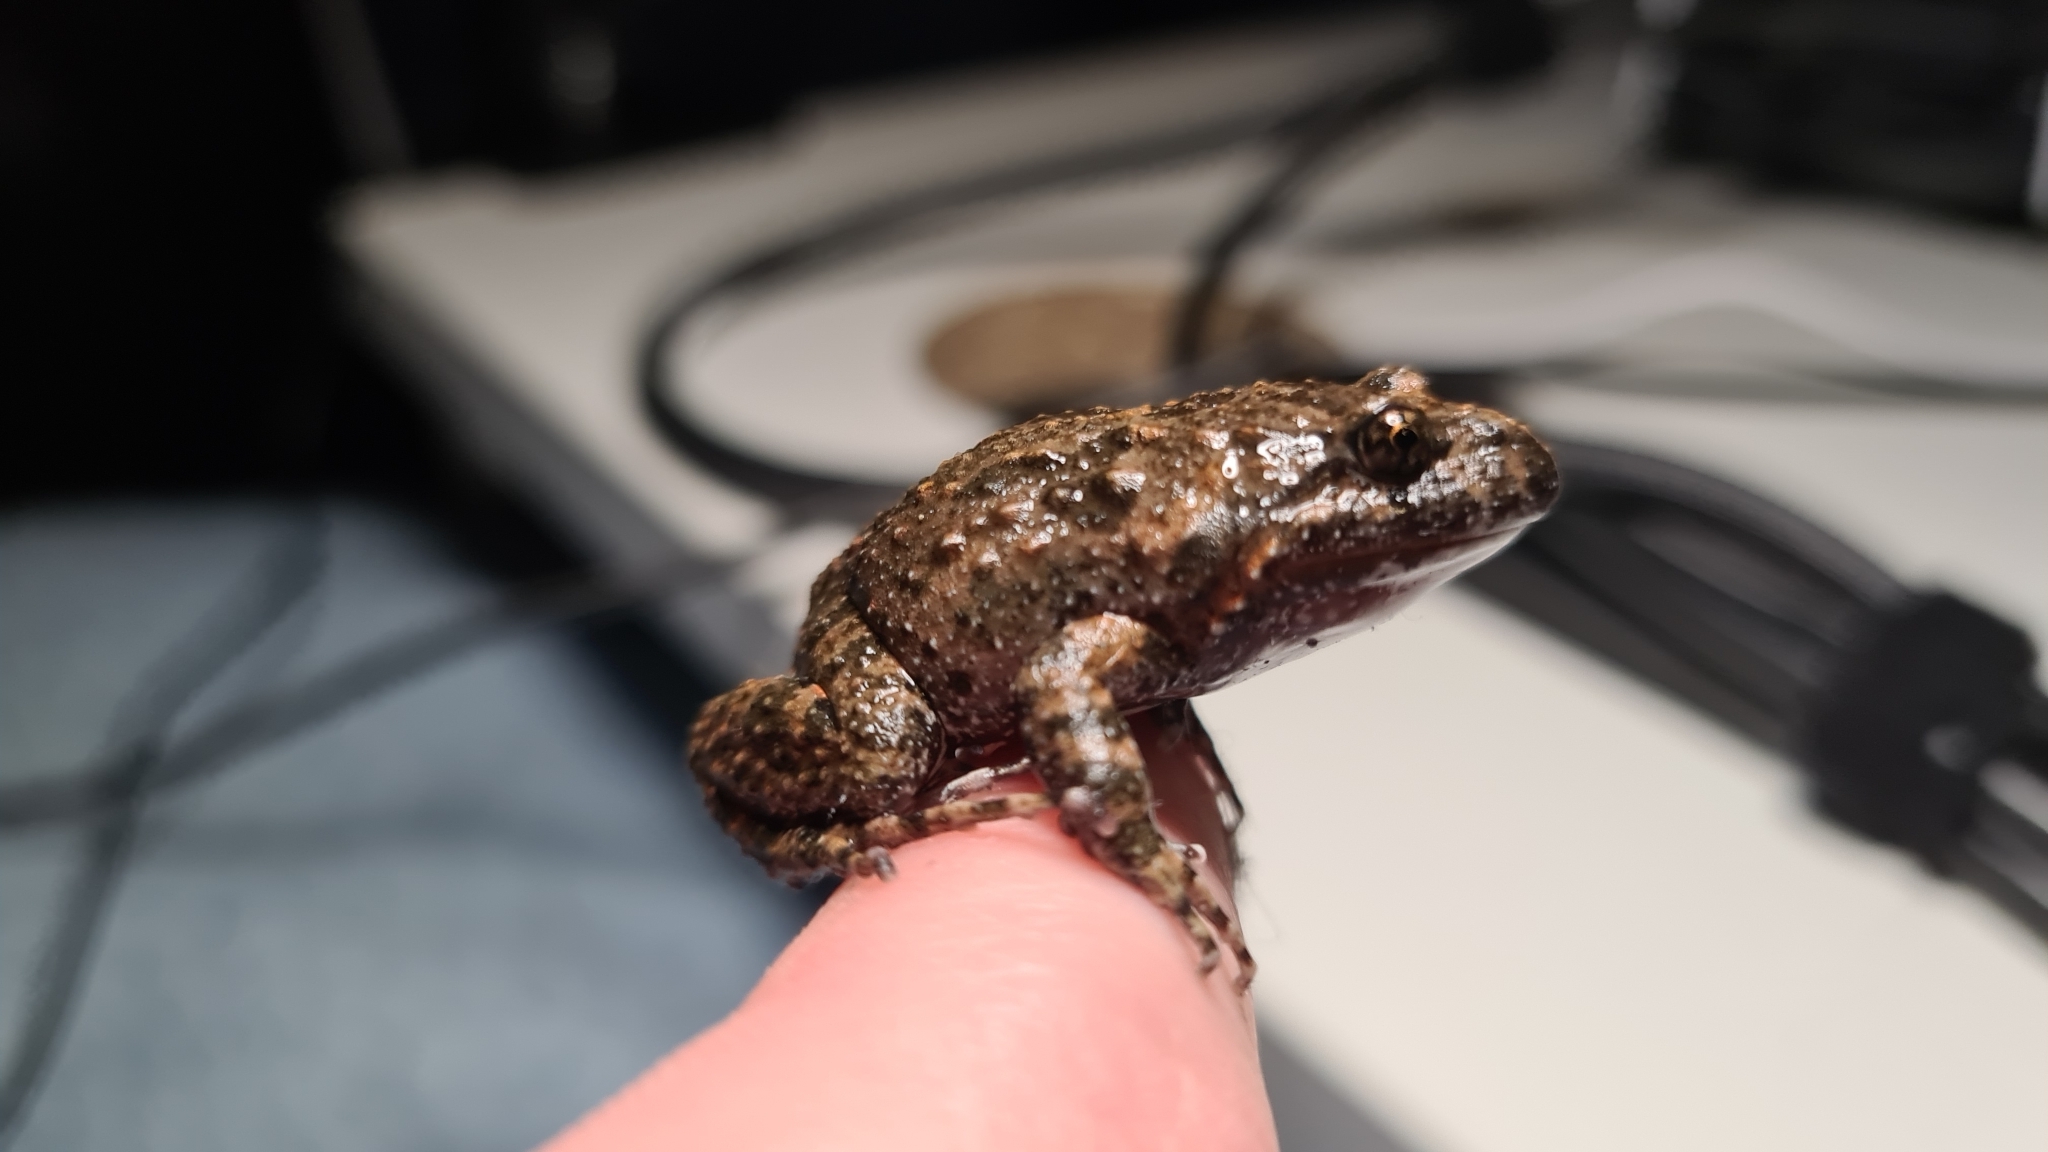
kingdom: Animalia
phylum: Chordata
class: Amphibia
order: Anura
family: Limnodynastidae
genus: Adelotus
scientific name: Adelotus brevis
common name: Tusked frog
